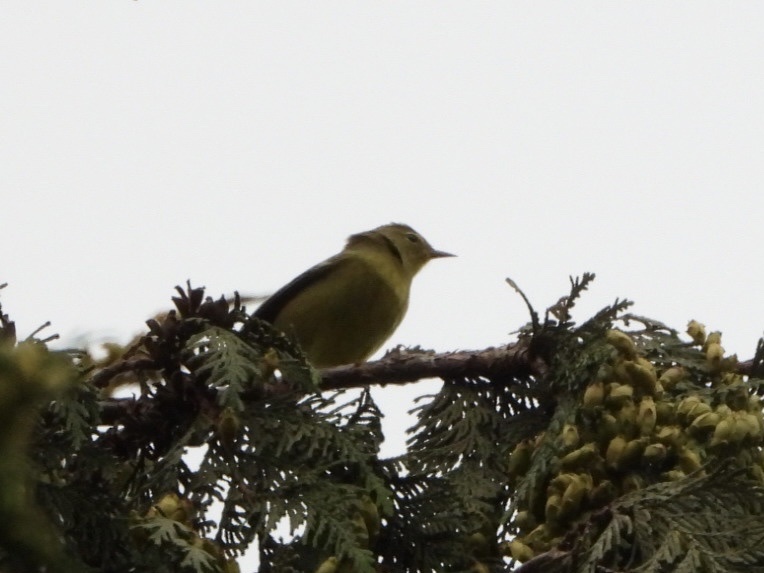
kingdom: Animalia
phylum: Chordata
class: Aves
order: Passeriformes
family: Parulidae
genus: Leiothlypis
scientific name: Leiothlypis celata
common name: Orange-crowned warbler
